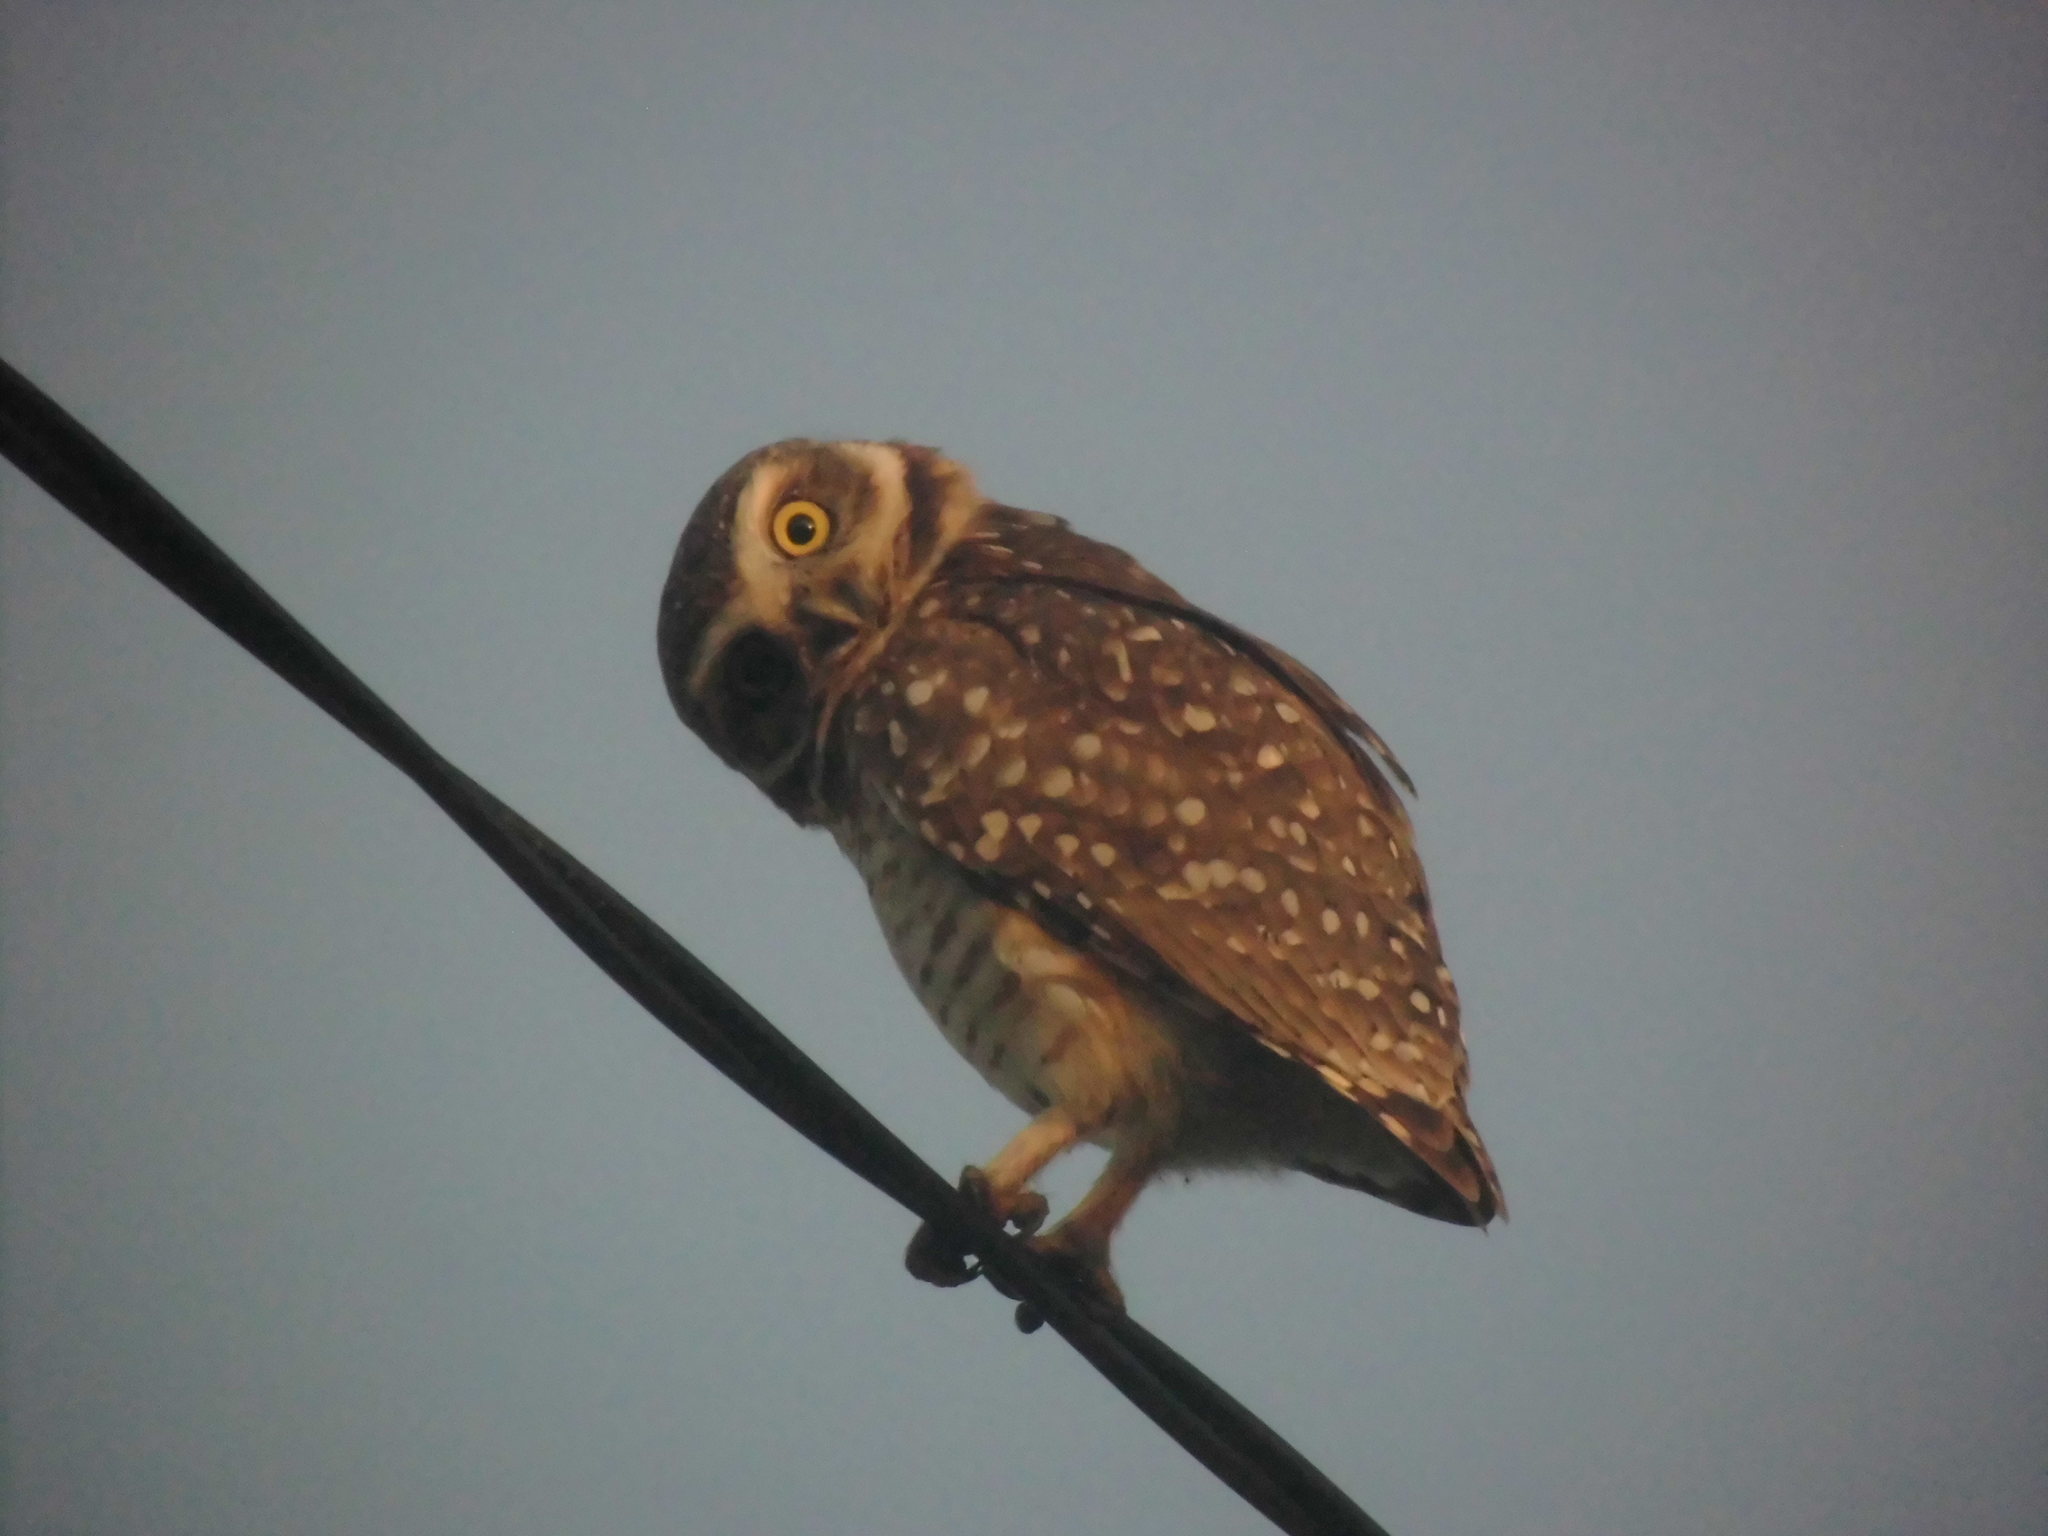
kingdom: Animalia
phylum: Chordata
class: Aves
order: Strigiformes
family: Strigidae
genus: Athene
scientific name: Athene cunicularia
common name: Burrowing owl
